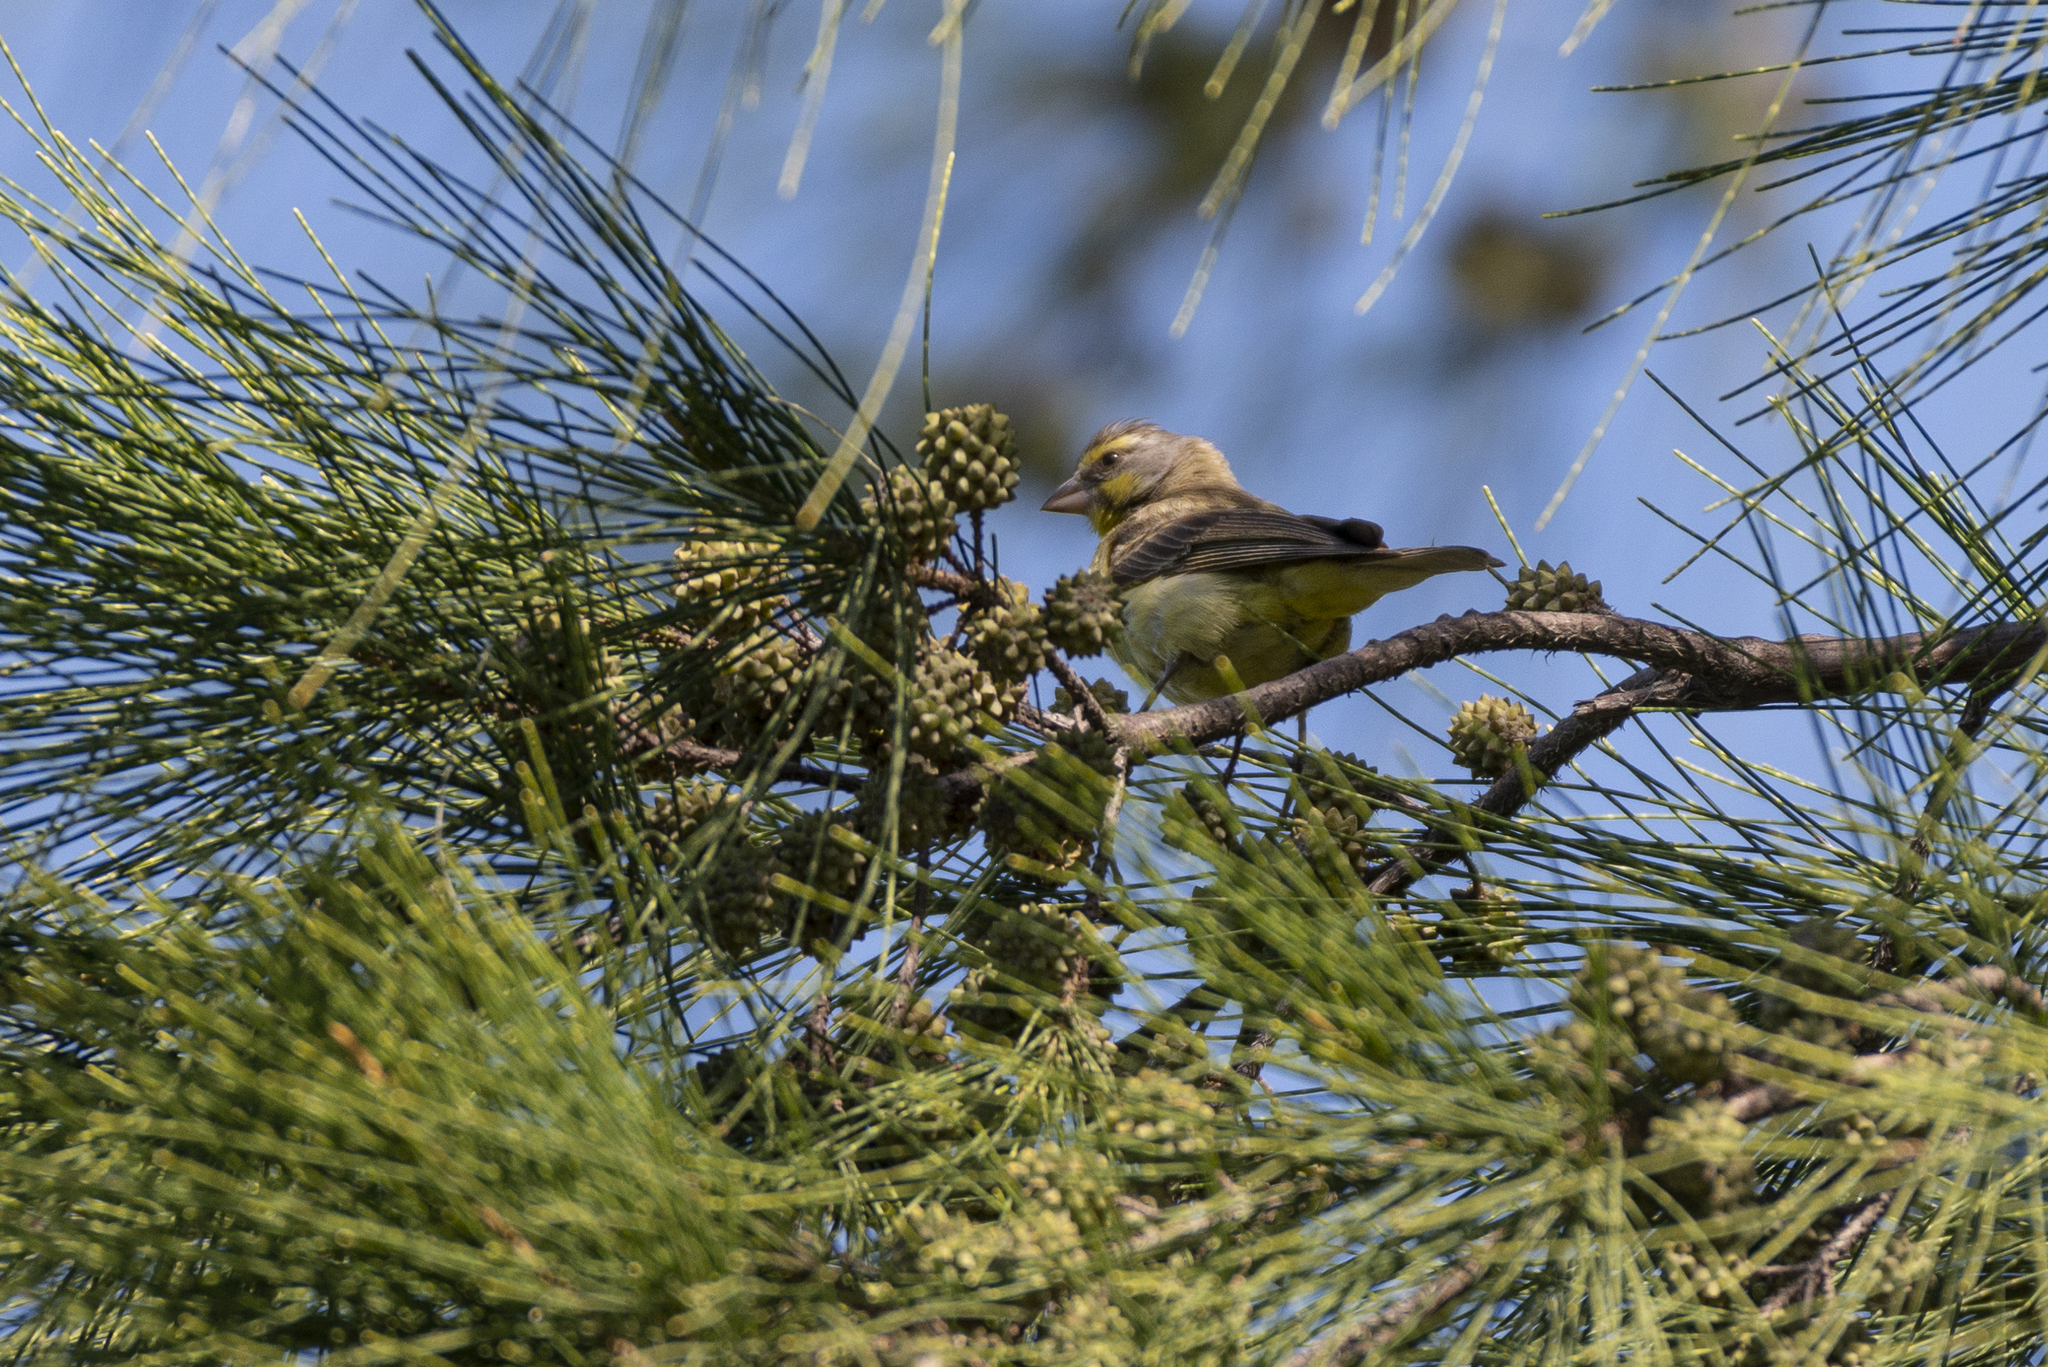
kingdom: Animalia
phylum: Chordata
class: Aves
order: Passeriformes
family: Fringillidae
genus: Crithagra
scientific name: Crithagra mozambica
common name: Yellow-fronted canary
